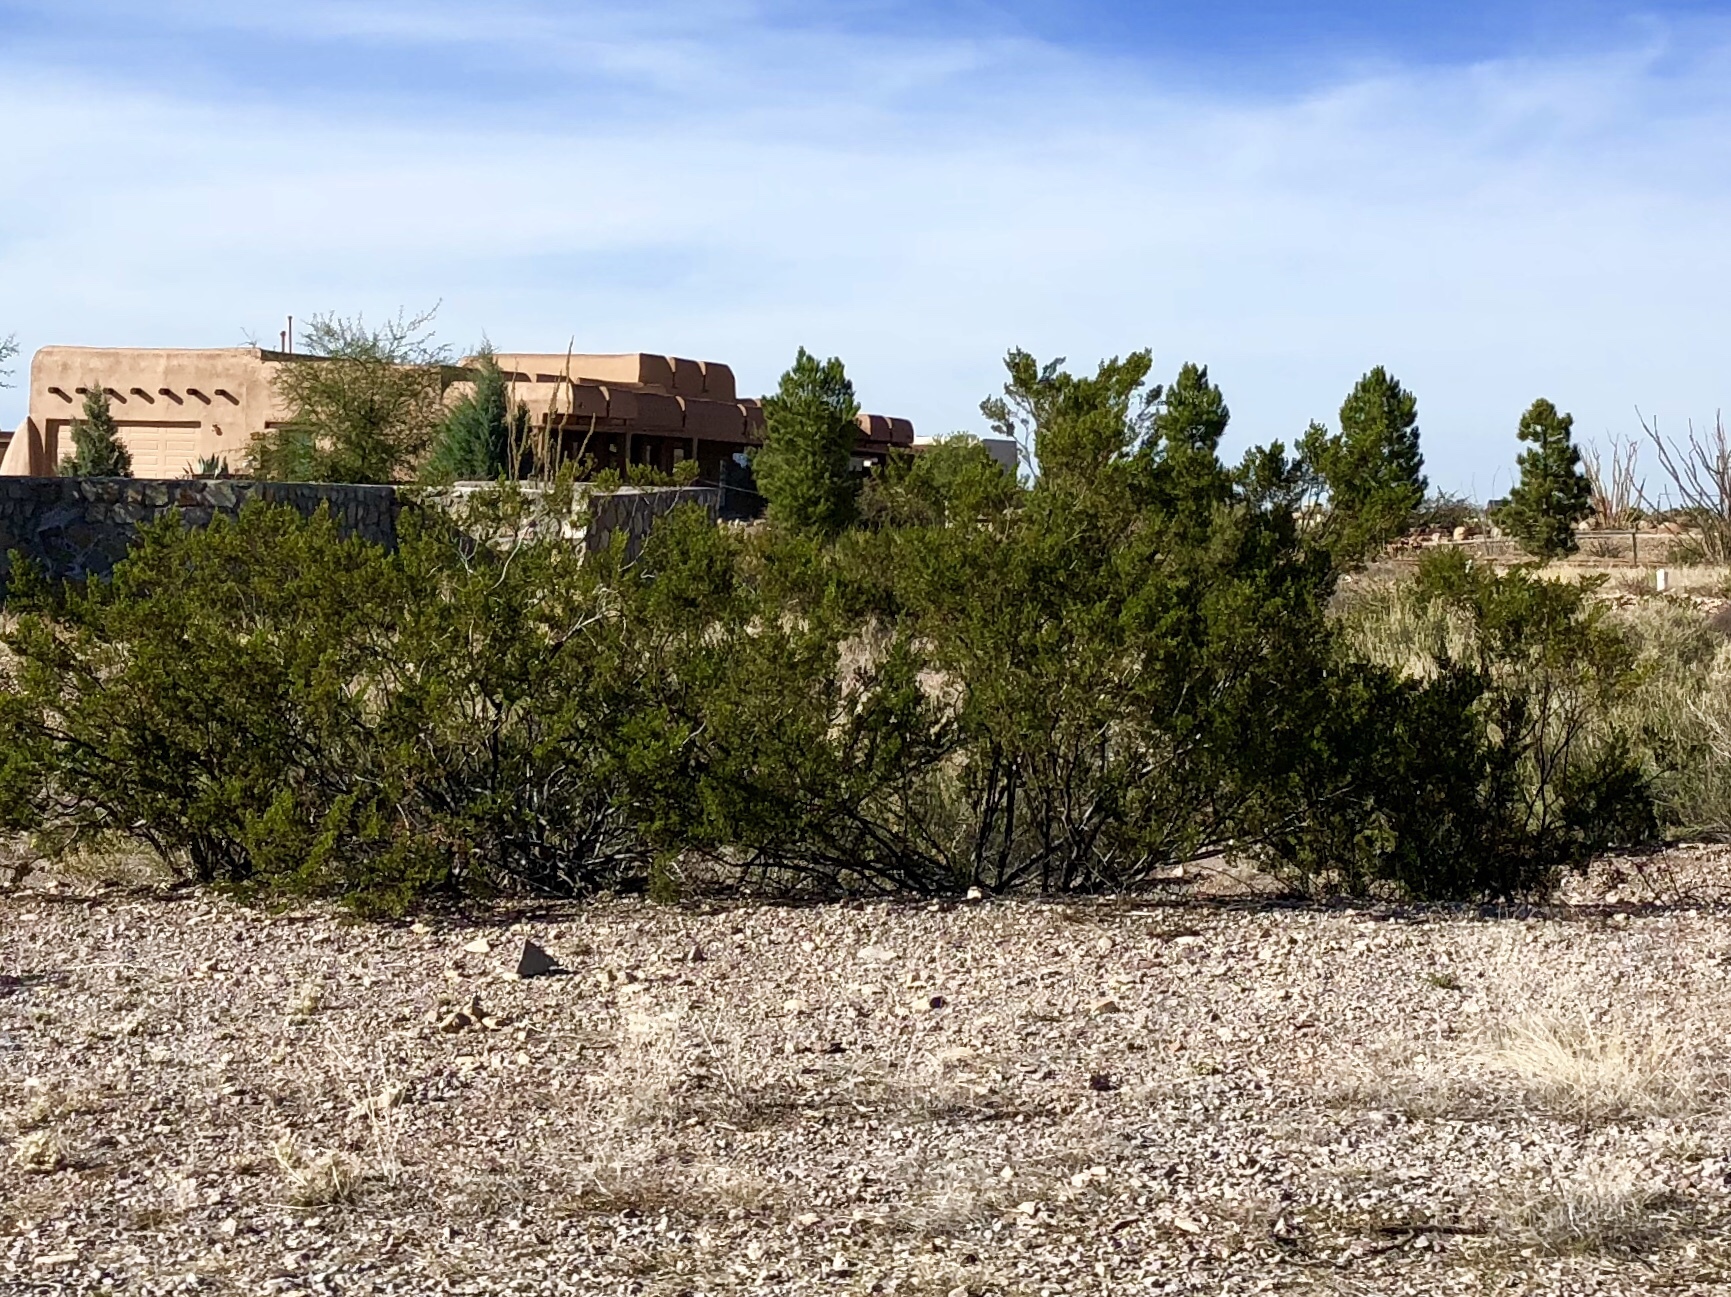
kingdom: Plantae
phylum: Tracheophyta
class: Magnoliopsida
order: Zygophyllales
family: Zygophyllaceae
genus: Larrea
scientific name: Larrea tridentata
